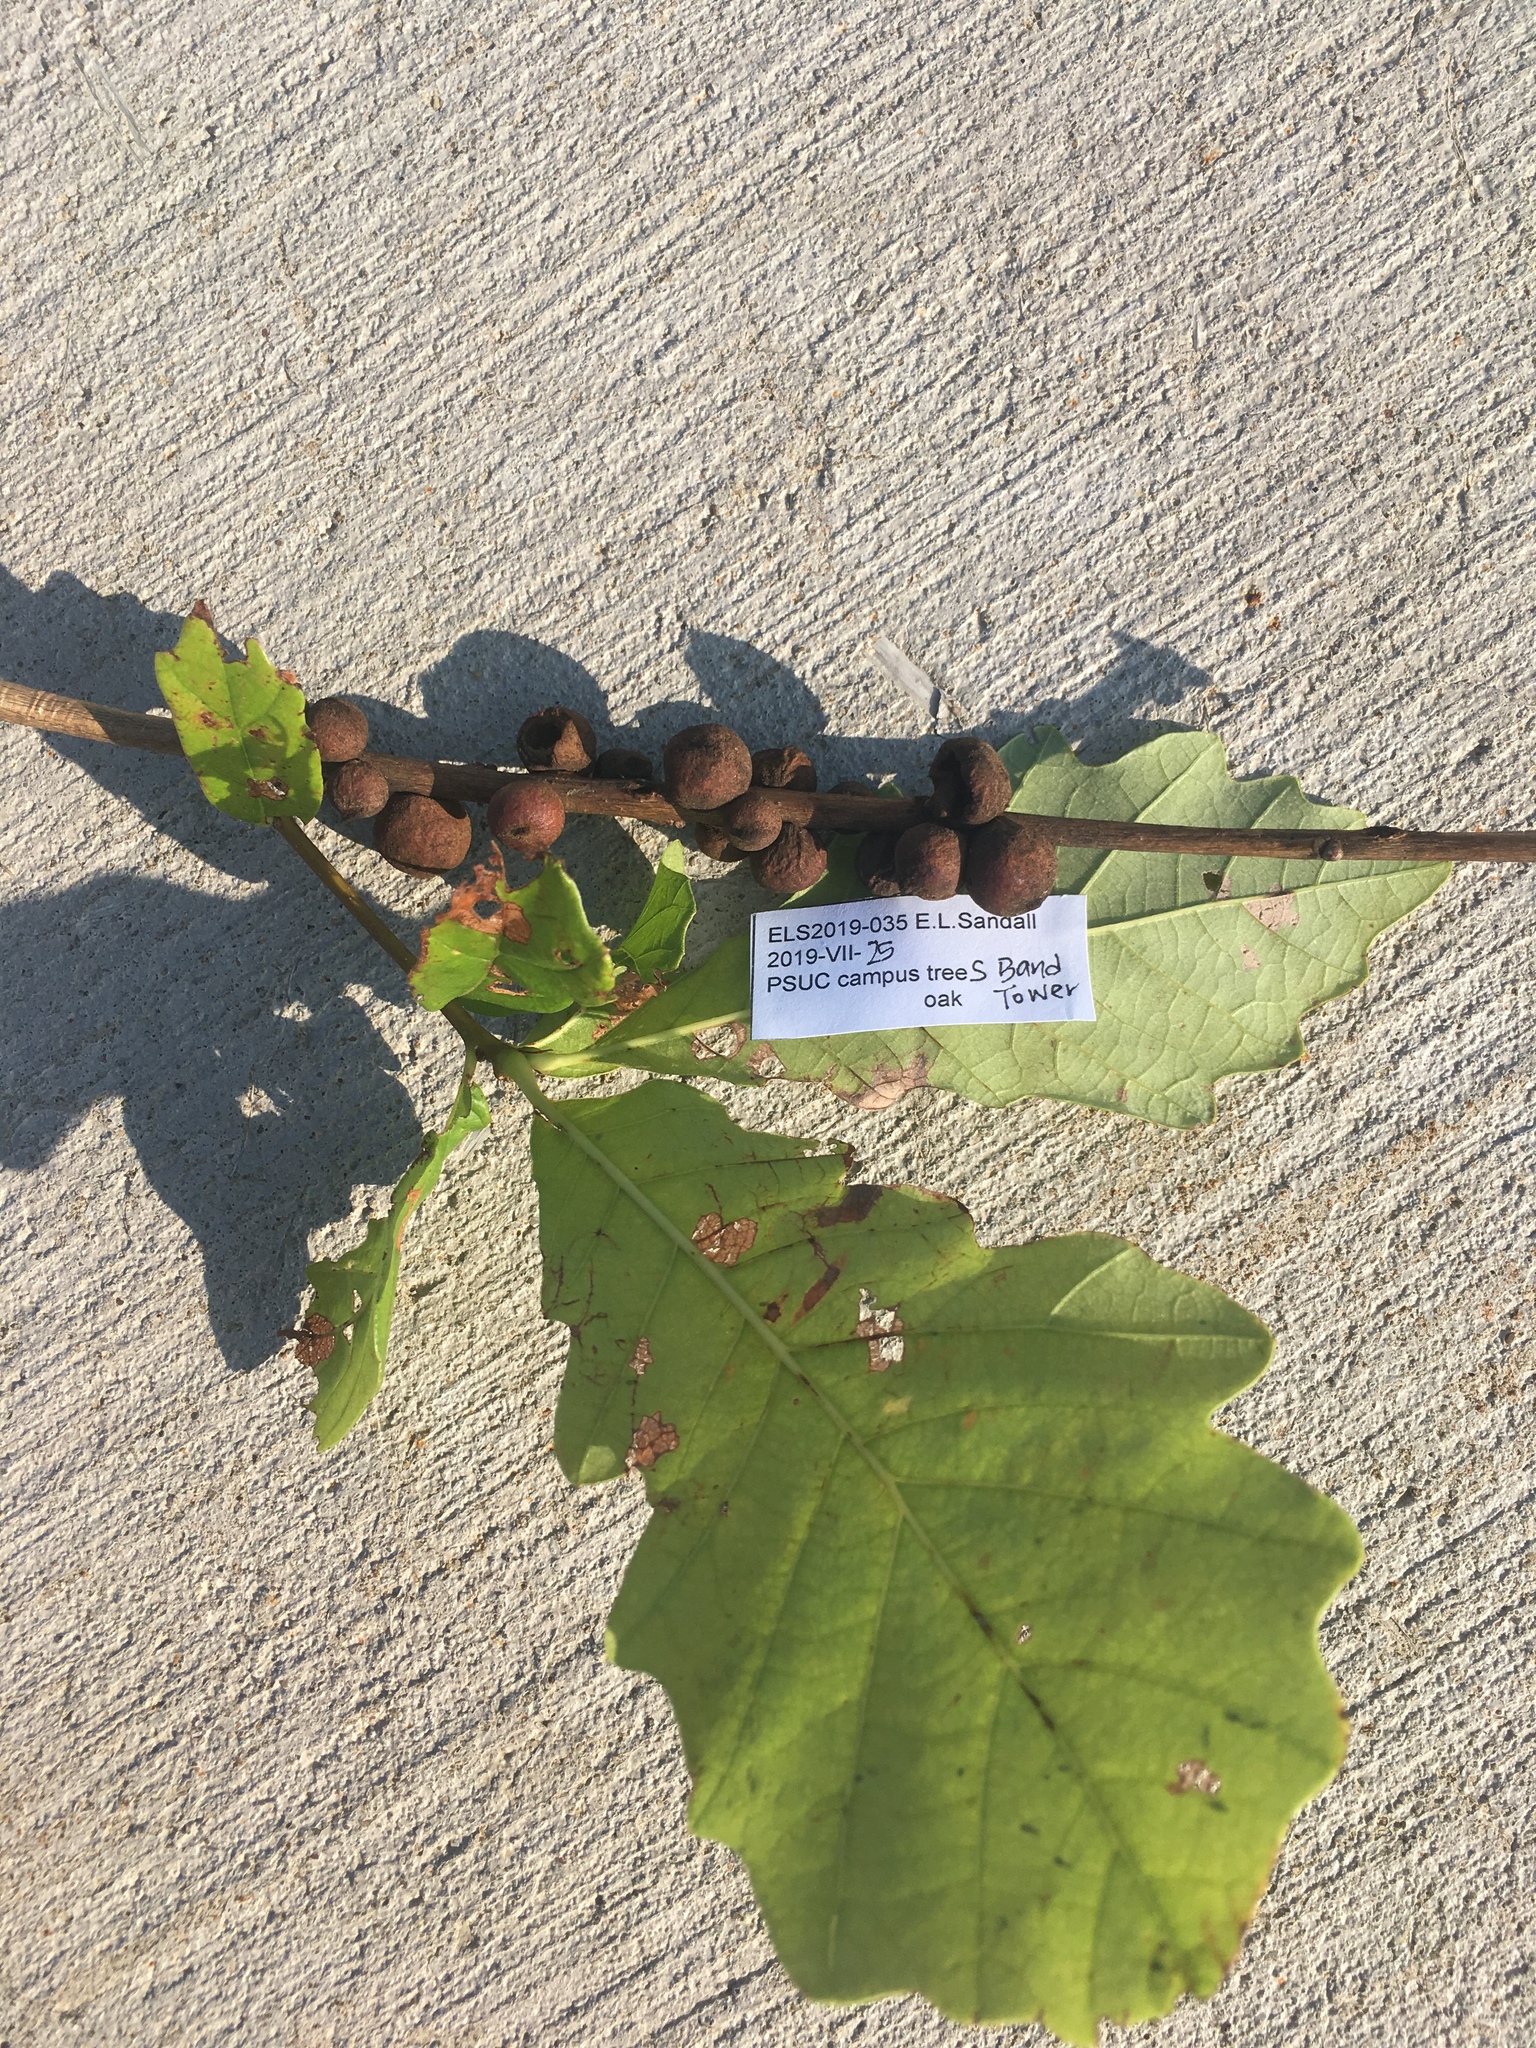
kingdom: Animalia
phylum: Arthropoda
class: Insecta
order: Hymenoptera
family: Cynipidae
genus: Disholcaspis
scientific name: Disholcaspis
